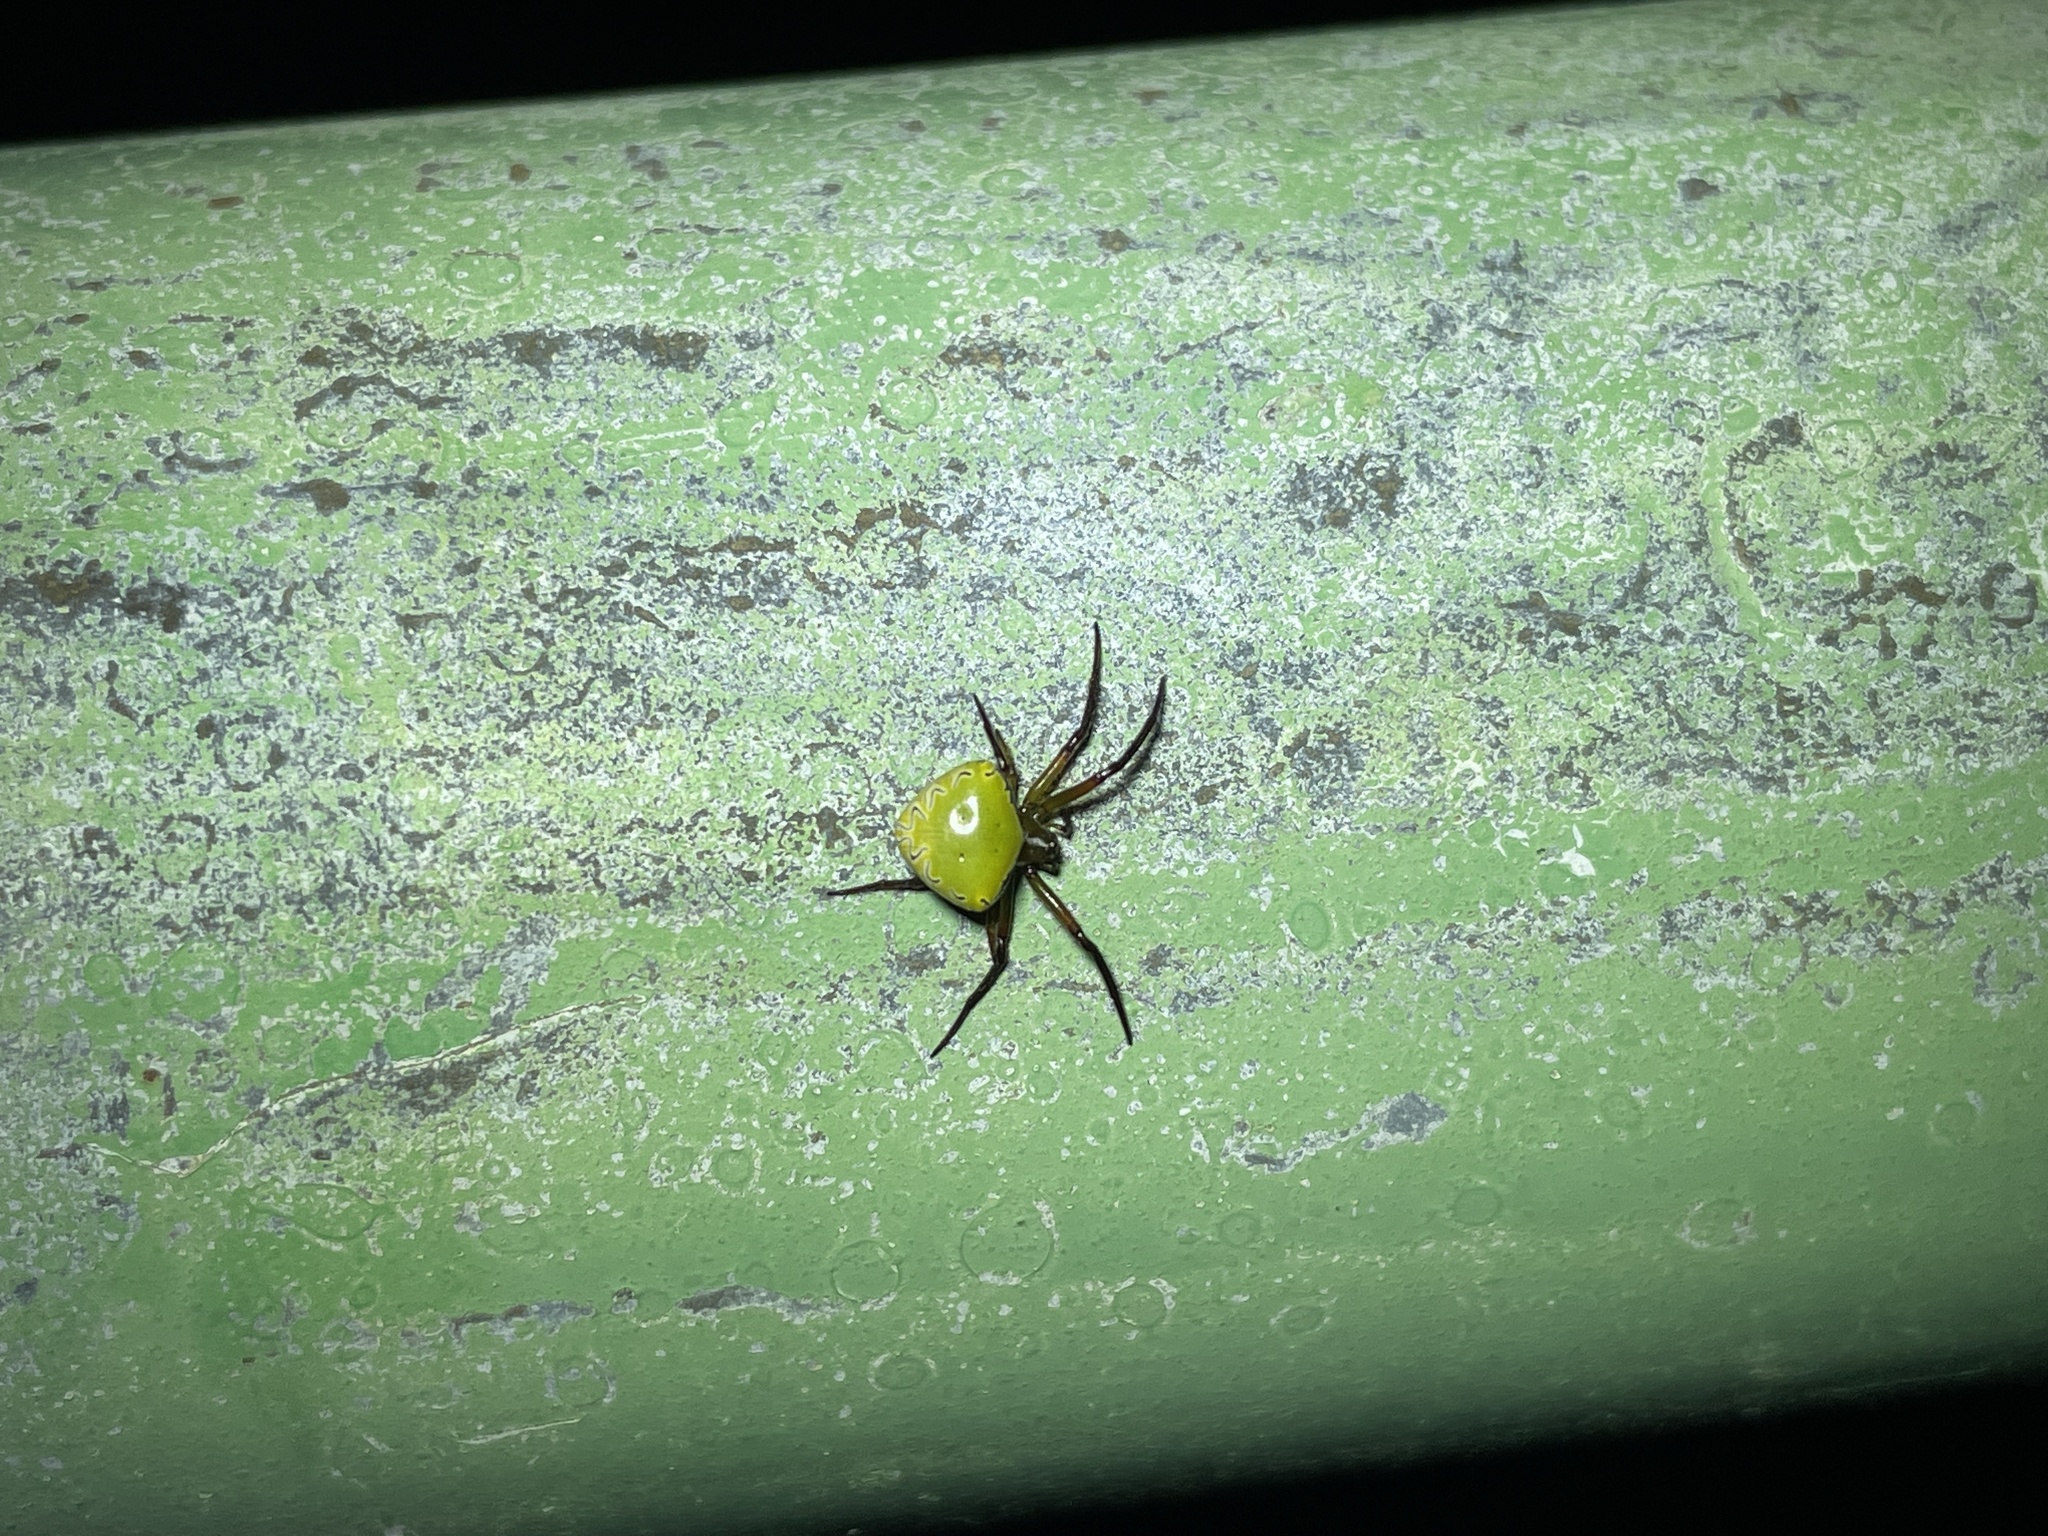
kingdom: Animalia
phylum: Arthropoda
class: Arachnida
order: Araneae
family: Araneidae
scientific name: Araneidae
